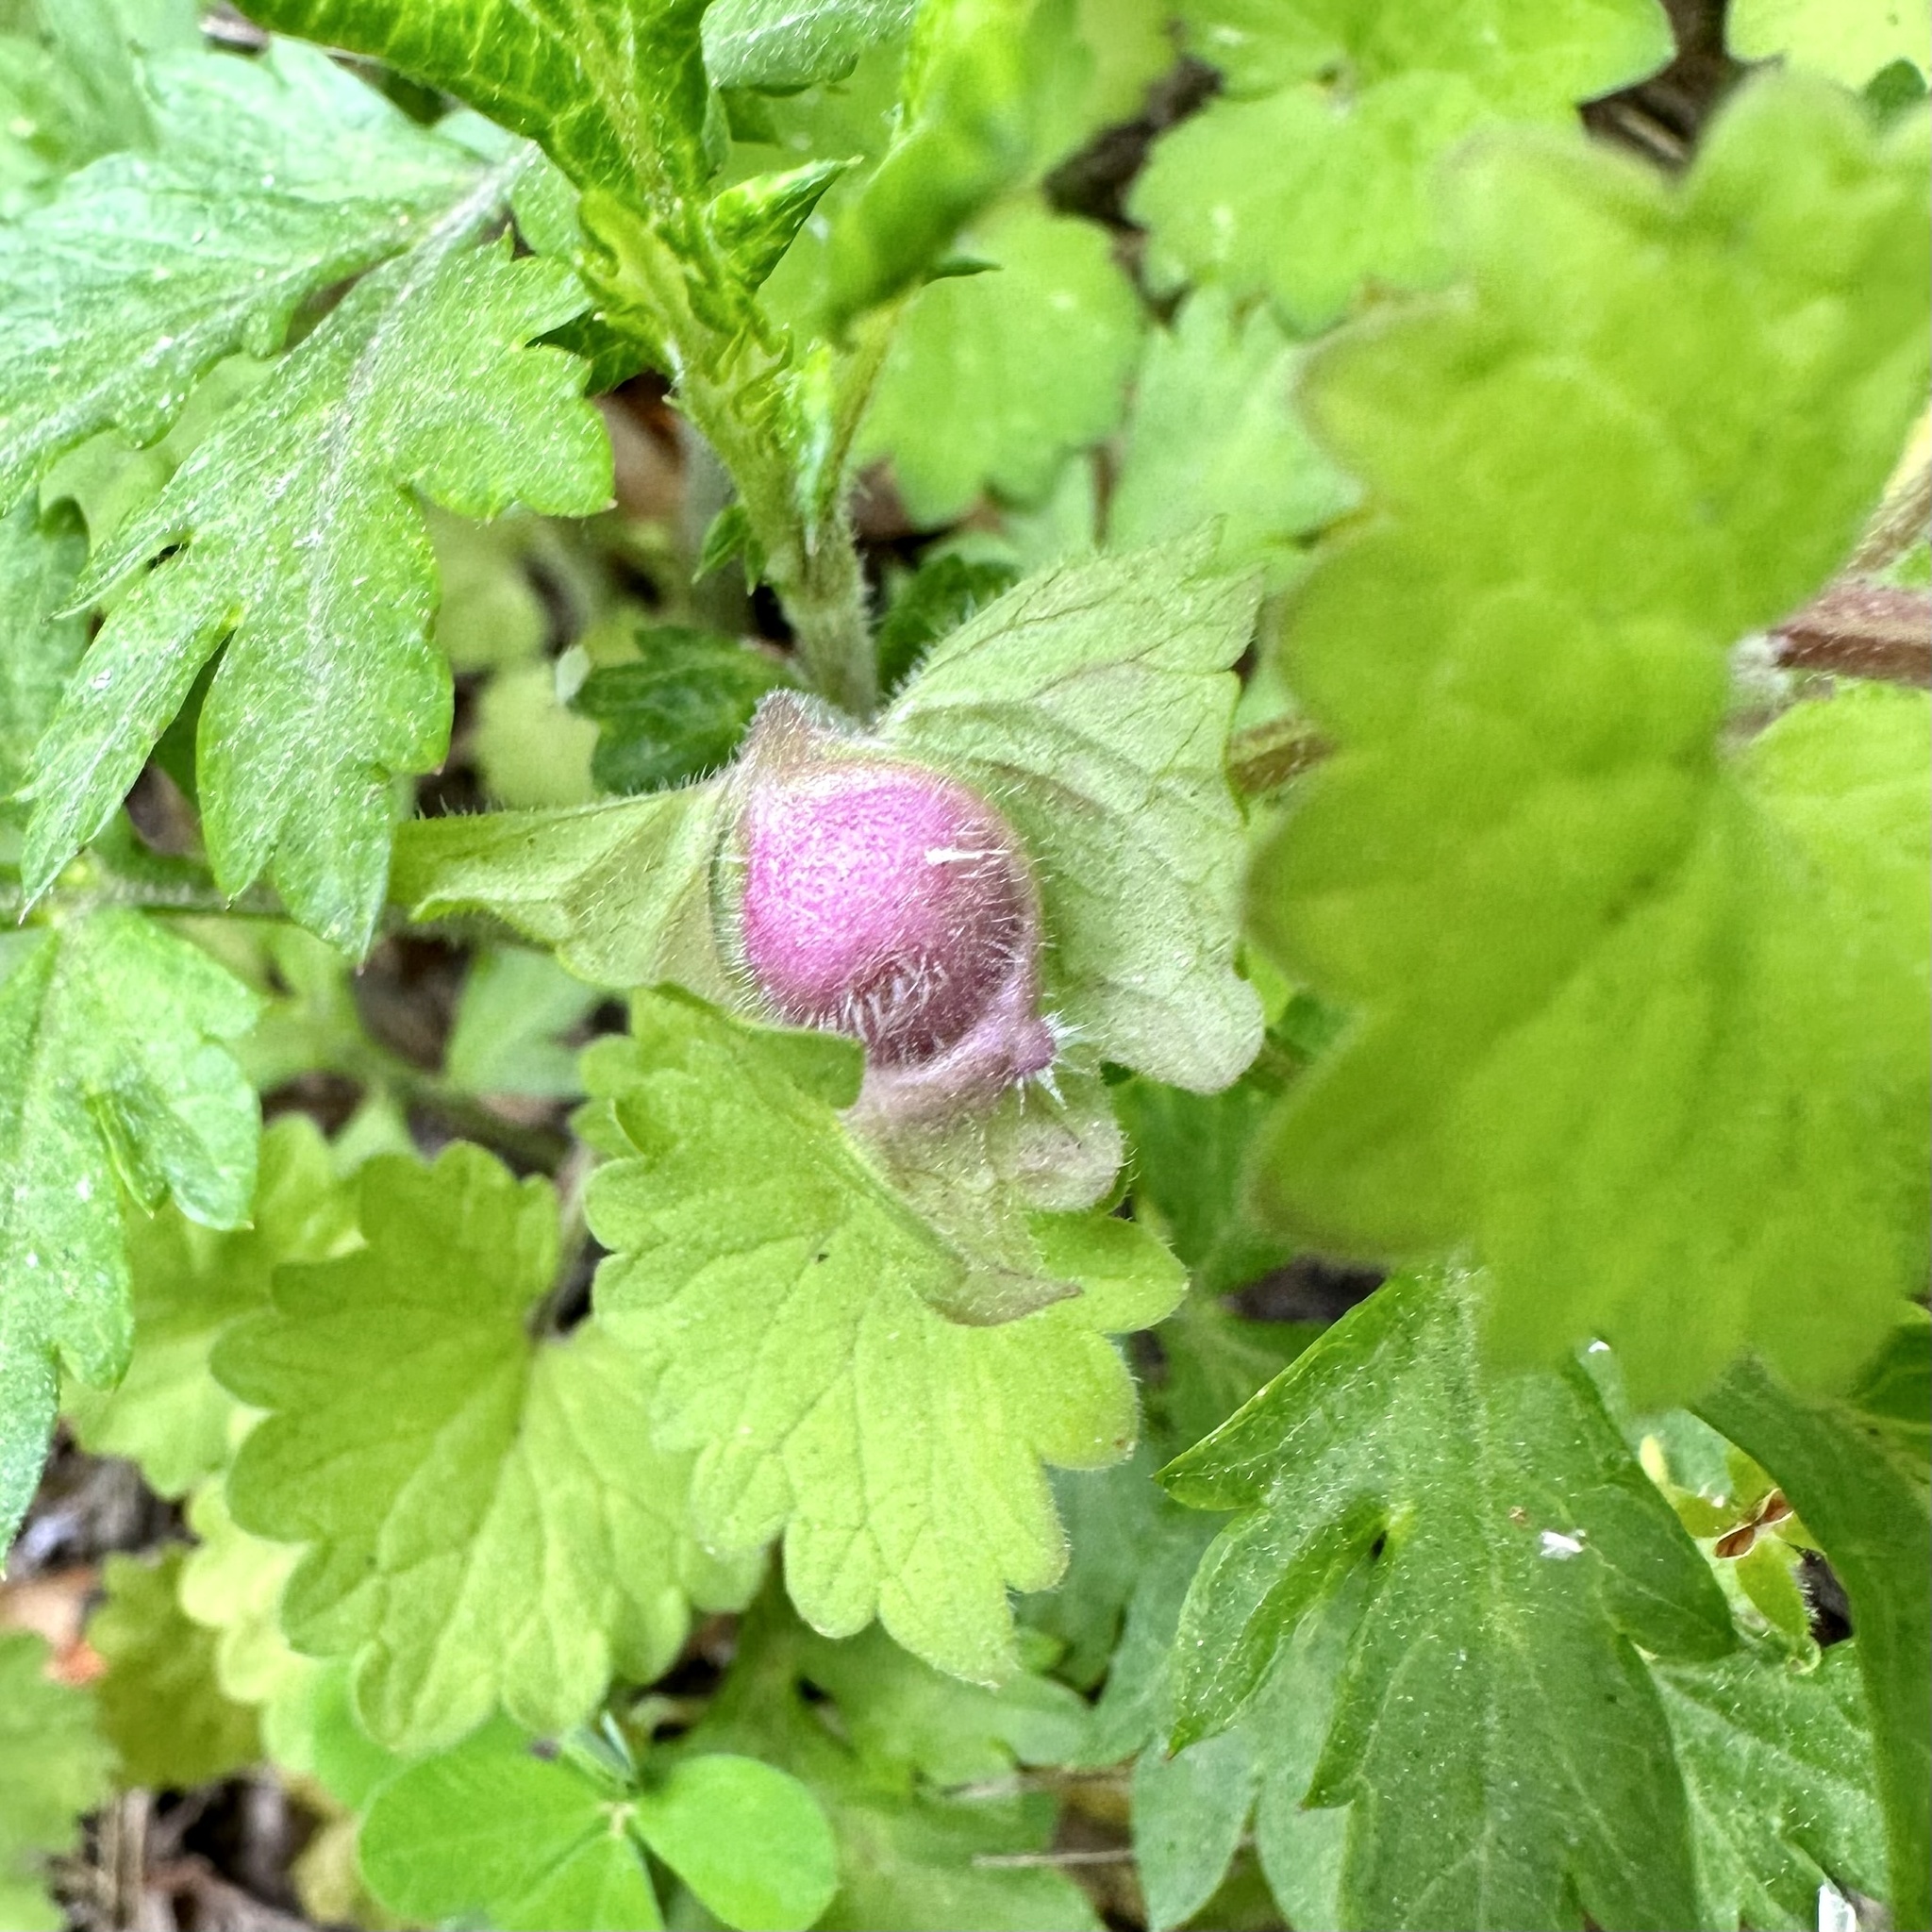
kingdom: Animalia
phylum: Arthropoda
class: Insecta
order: Hymenoptera
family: Cynipidae
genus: Liposthenes
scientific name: Liposthenes glechomae
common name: Gall wasp
